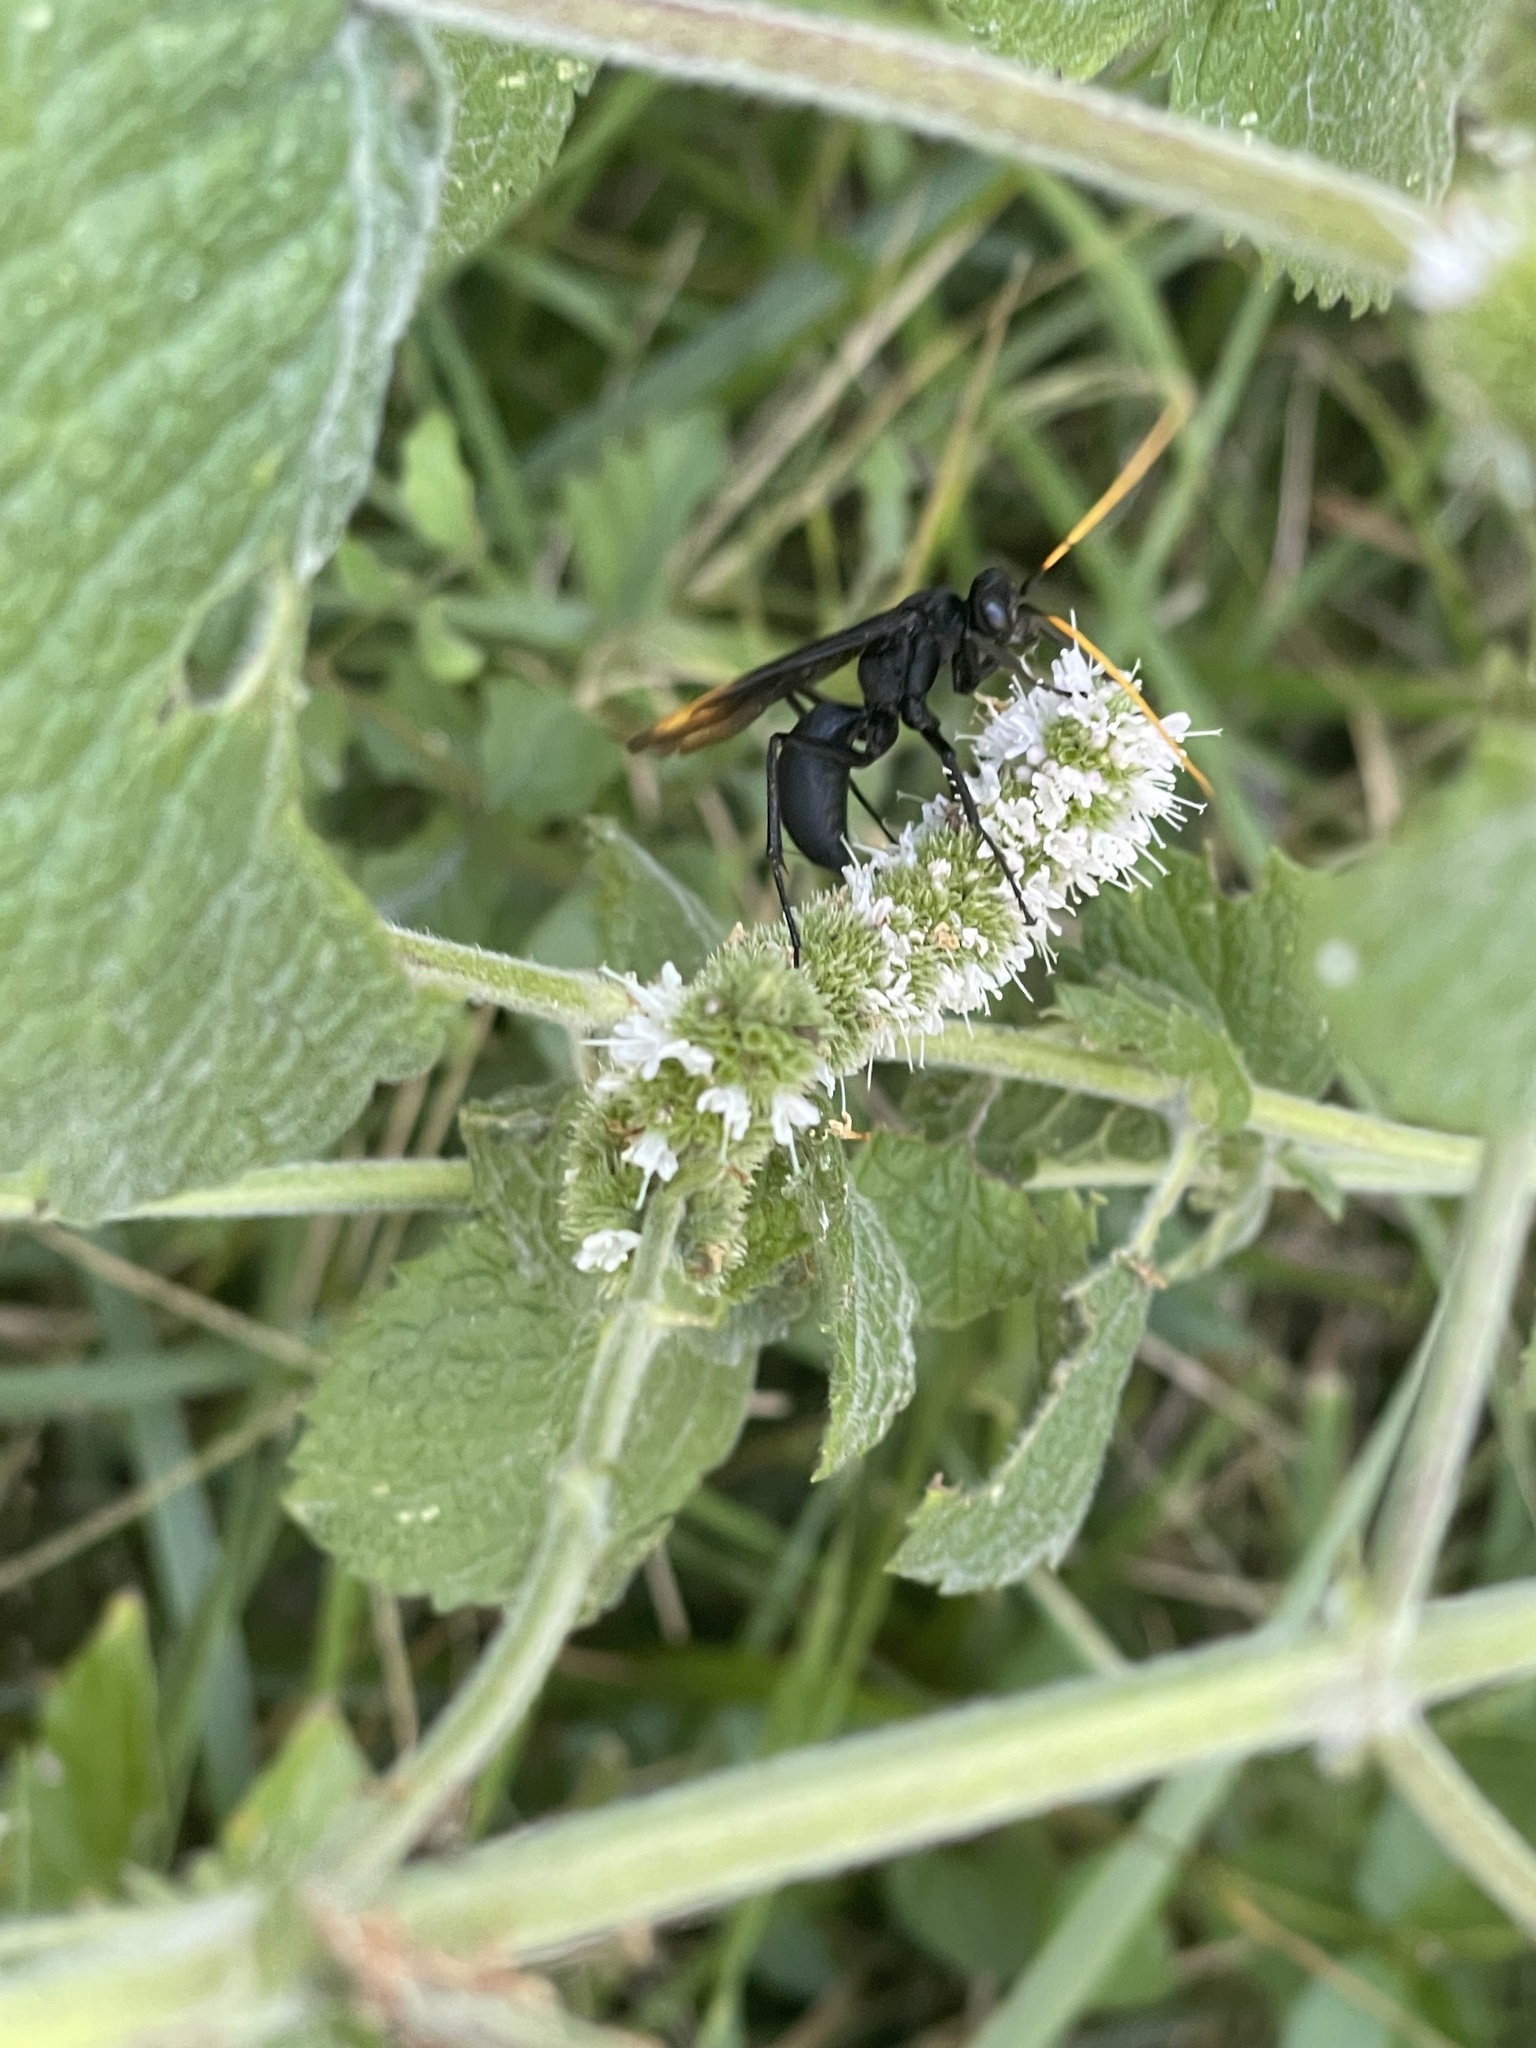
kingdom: Animalia
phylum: Arthropoda
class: Insecta
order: Hymenoptera
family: Pompilidae
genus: Entypus
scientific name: Entypus unifasciatus
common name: Eastern tawny-horned spider wasp
